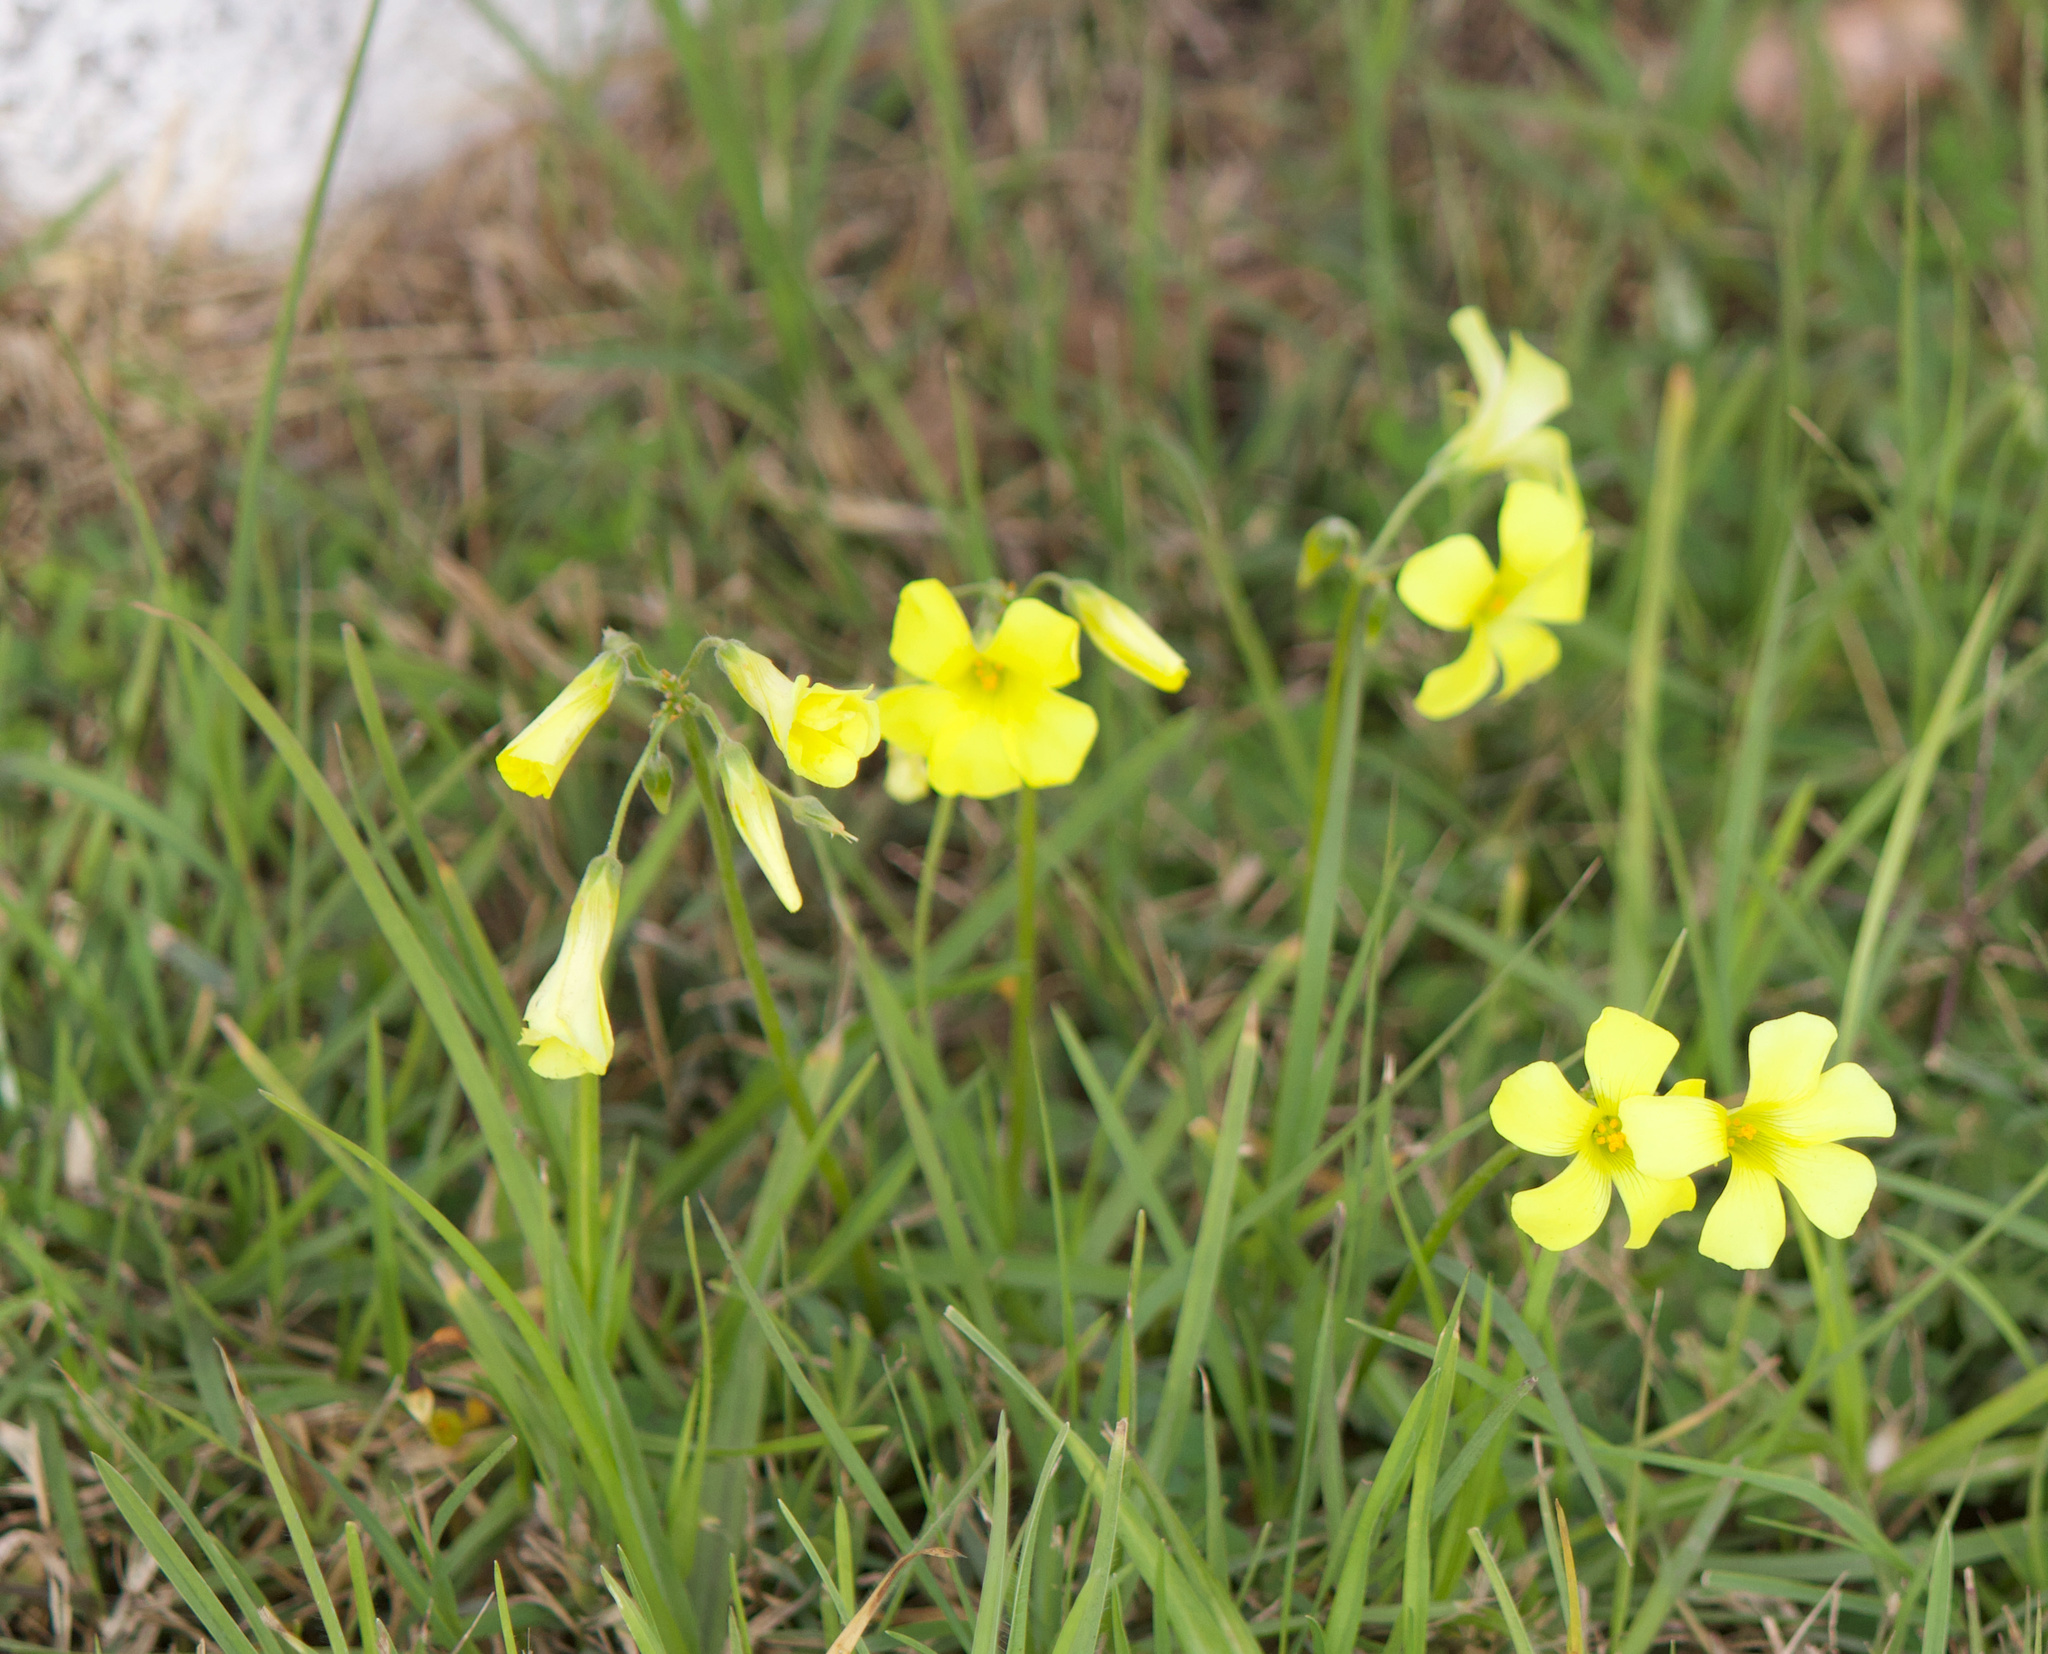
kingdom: Plantae
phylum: Tracheophyta
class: Magnoliopsida
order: Oxalidales
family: Oxalidaceae
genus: Oxalis
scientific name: Oxalis pes-caprae
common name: Bermuda-buttercup
